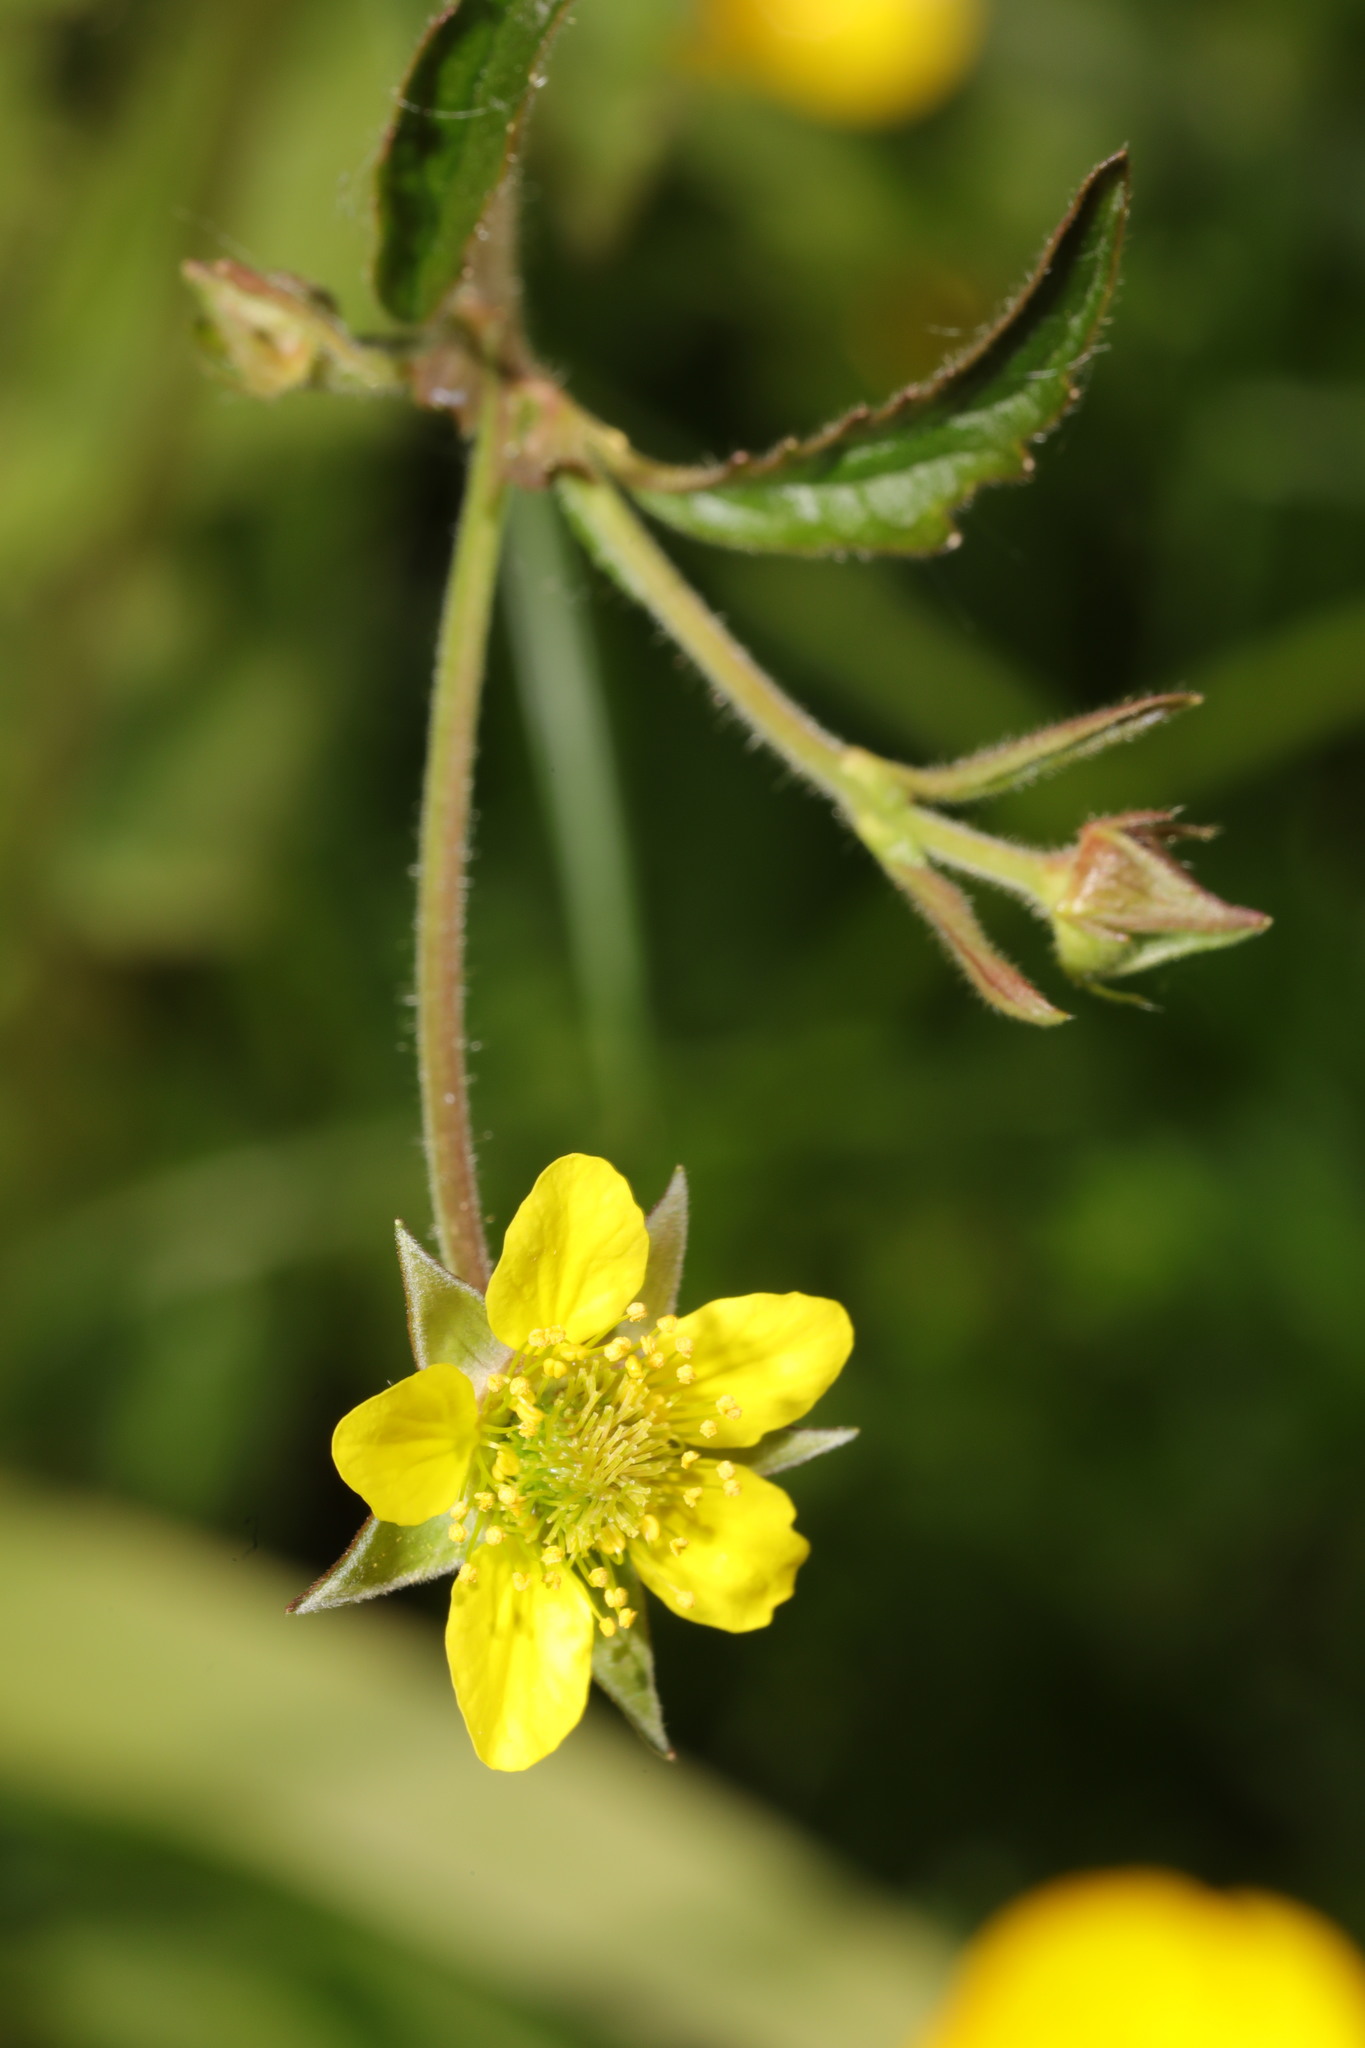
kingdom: Plantae
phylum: Tracheophyta
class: Magnoliopsida
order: Rosales
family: Rosaceae
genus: Geum
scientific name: Geum urbanum
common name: Wood avens
